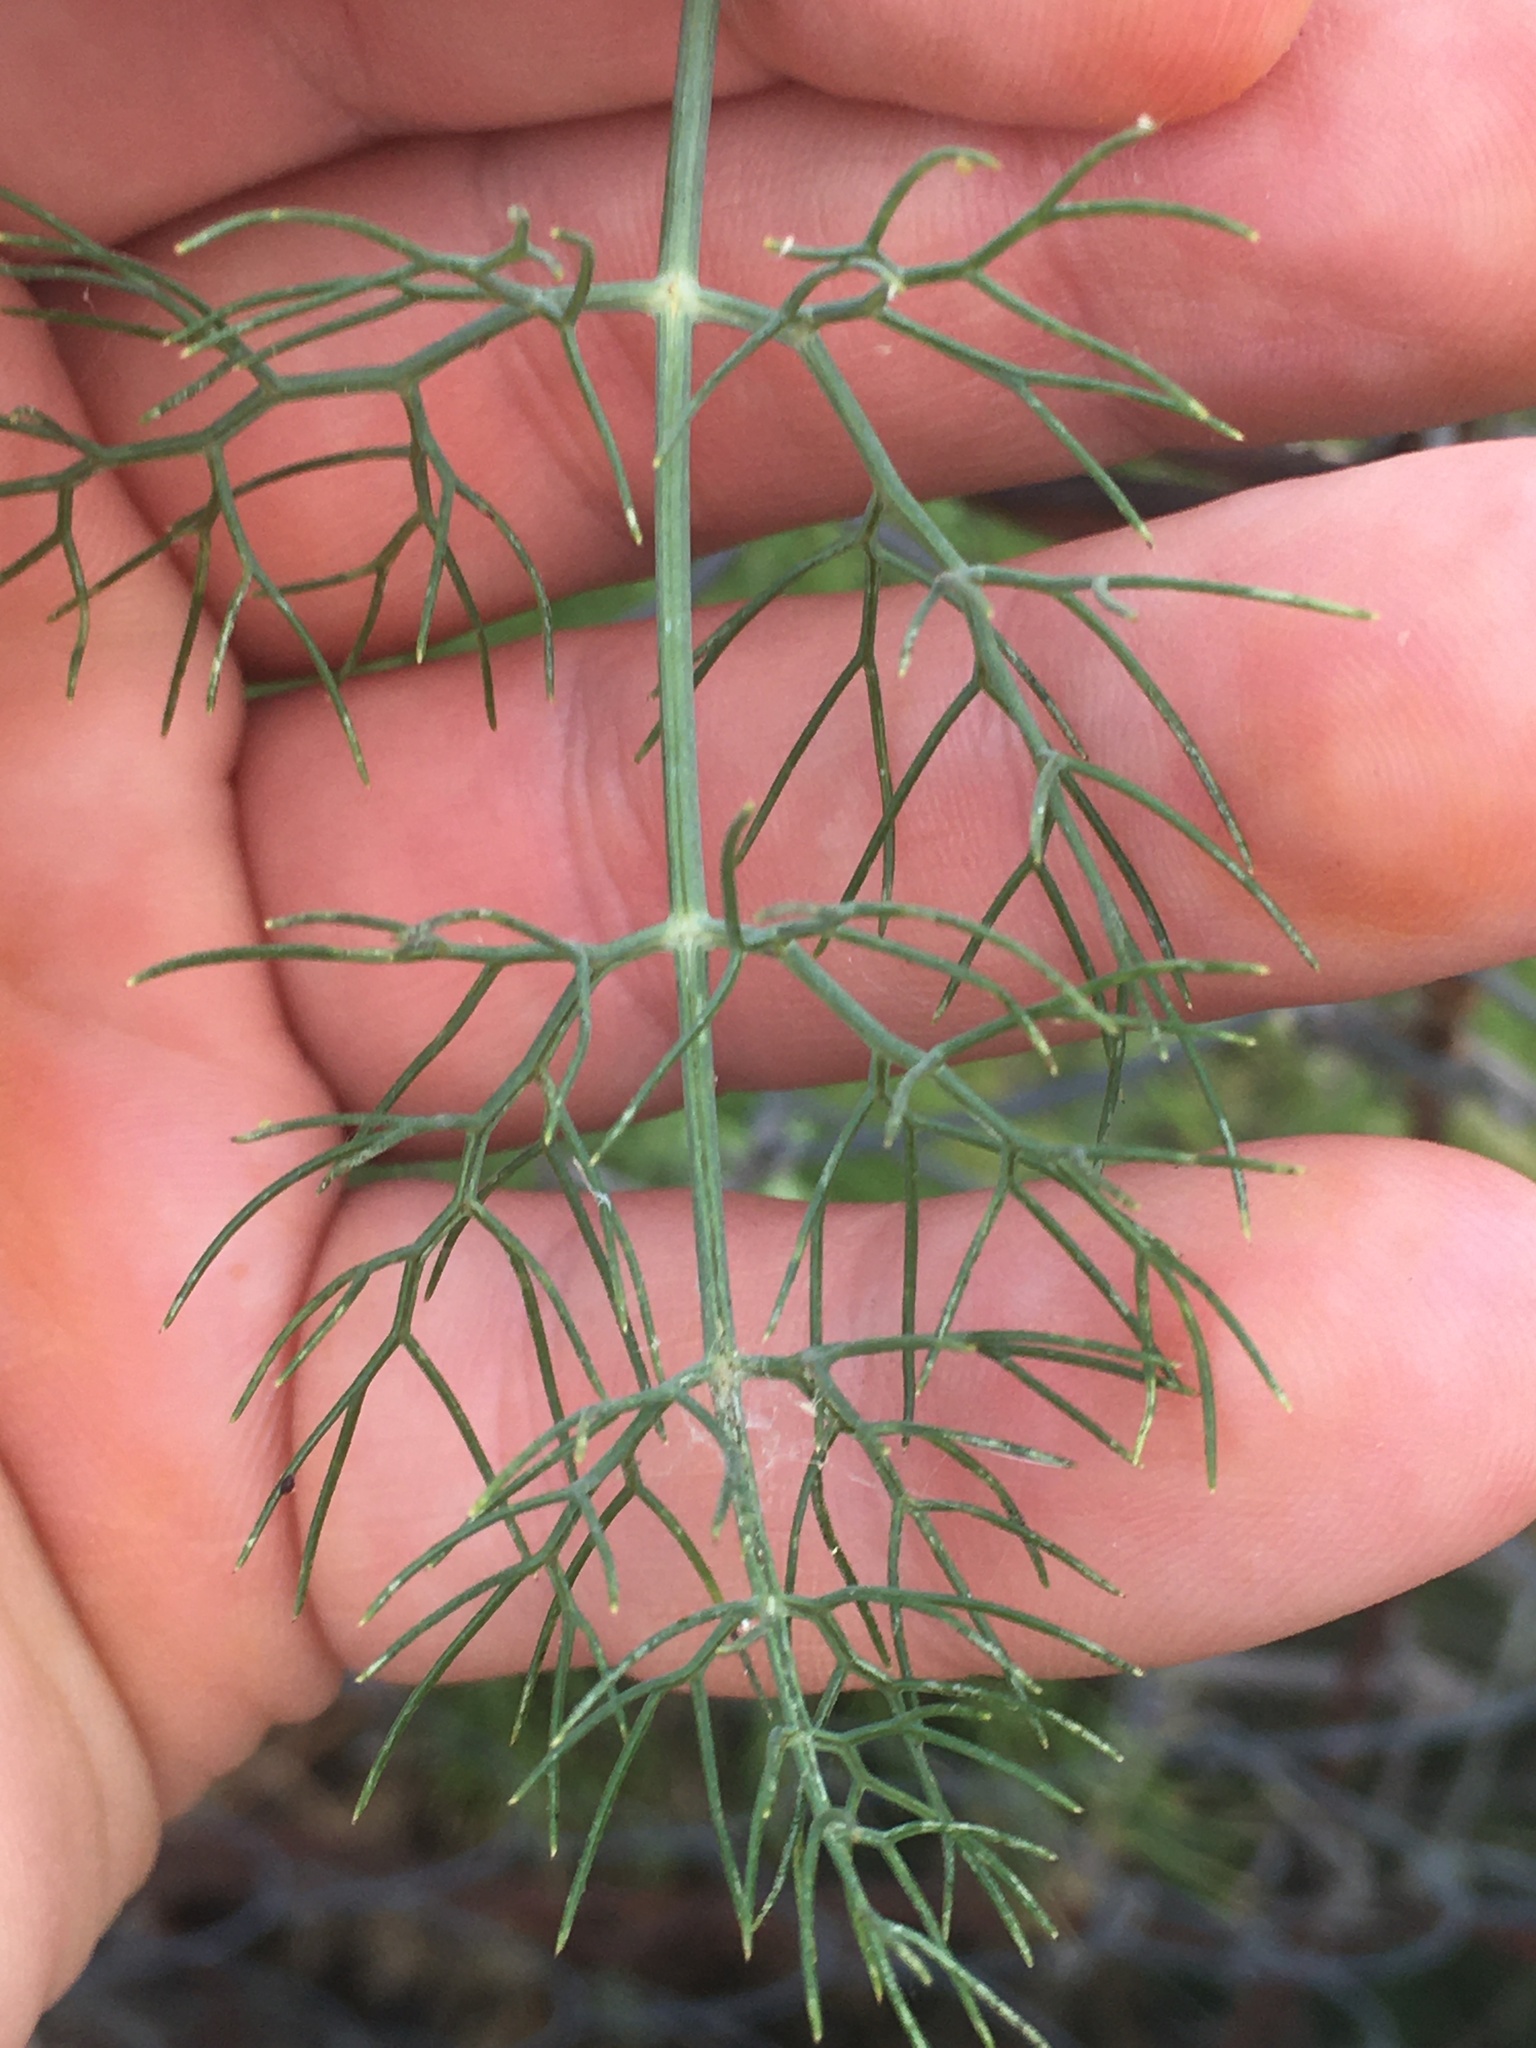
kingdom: Plantae
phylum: Tracheophyta
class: Magnoliopsida
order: Apiales
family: Apiaceae
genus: Foeniculum
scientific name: Foeniculum vulgare
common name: Fennel
